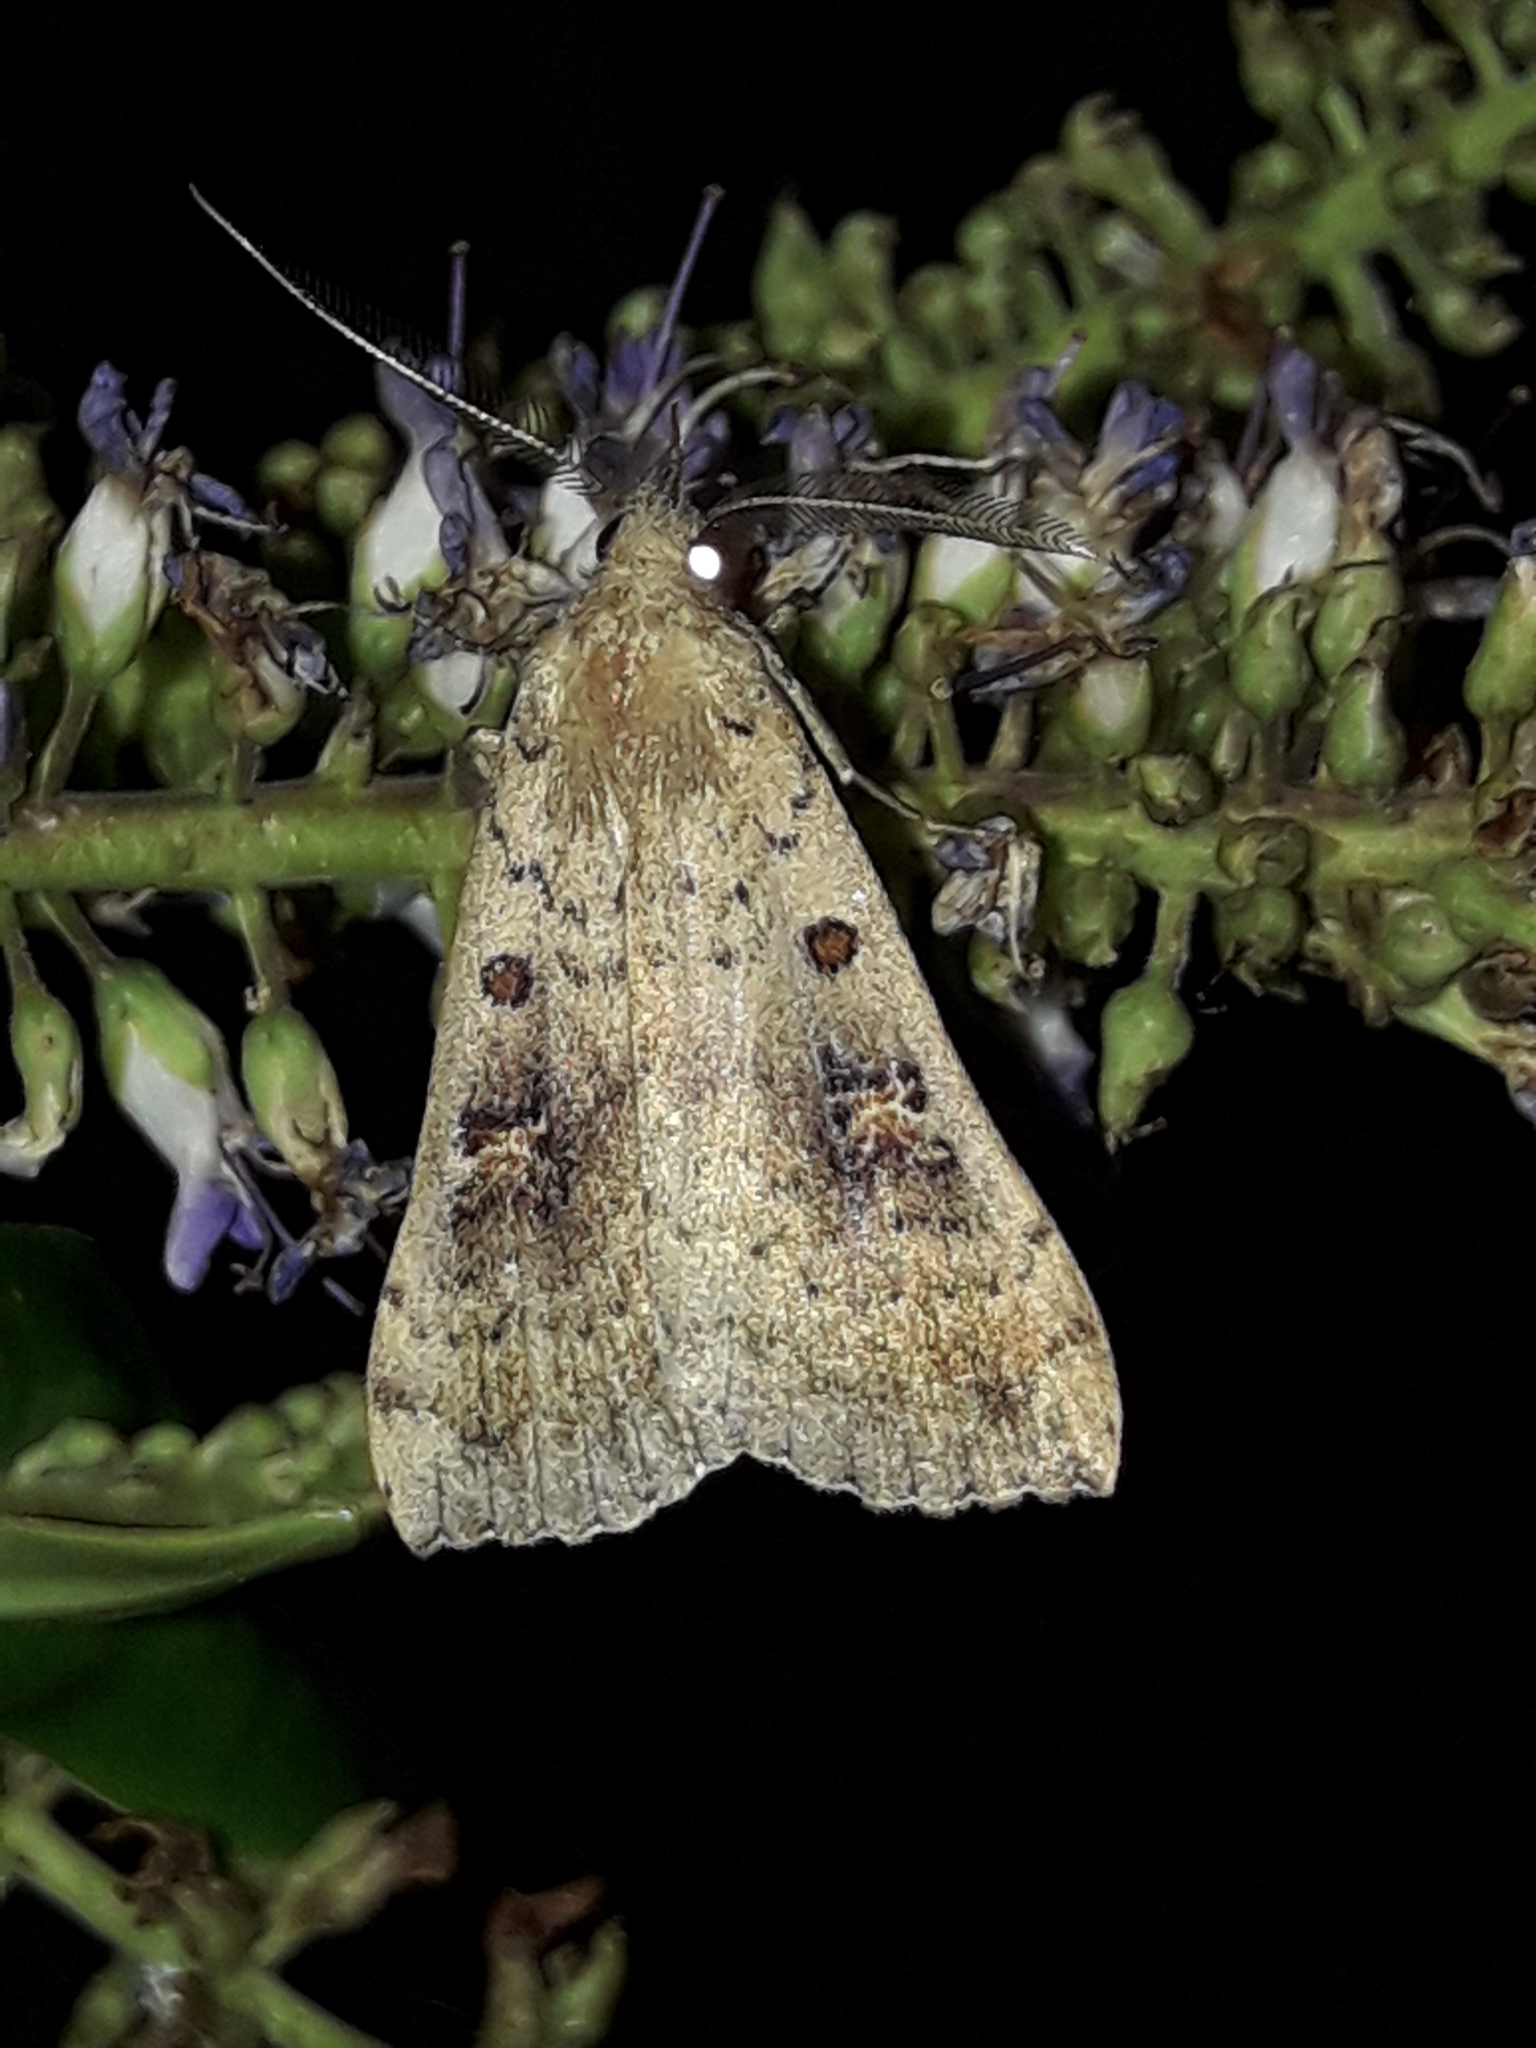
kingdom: Animalia
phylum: Arthropoda
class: Insecta
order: Lepidoptera
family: Erebidae
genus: Rhapsa
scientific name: Rhapsa scotosialis
